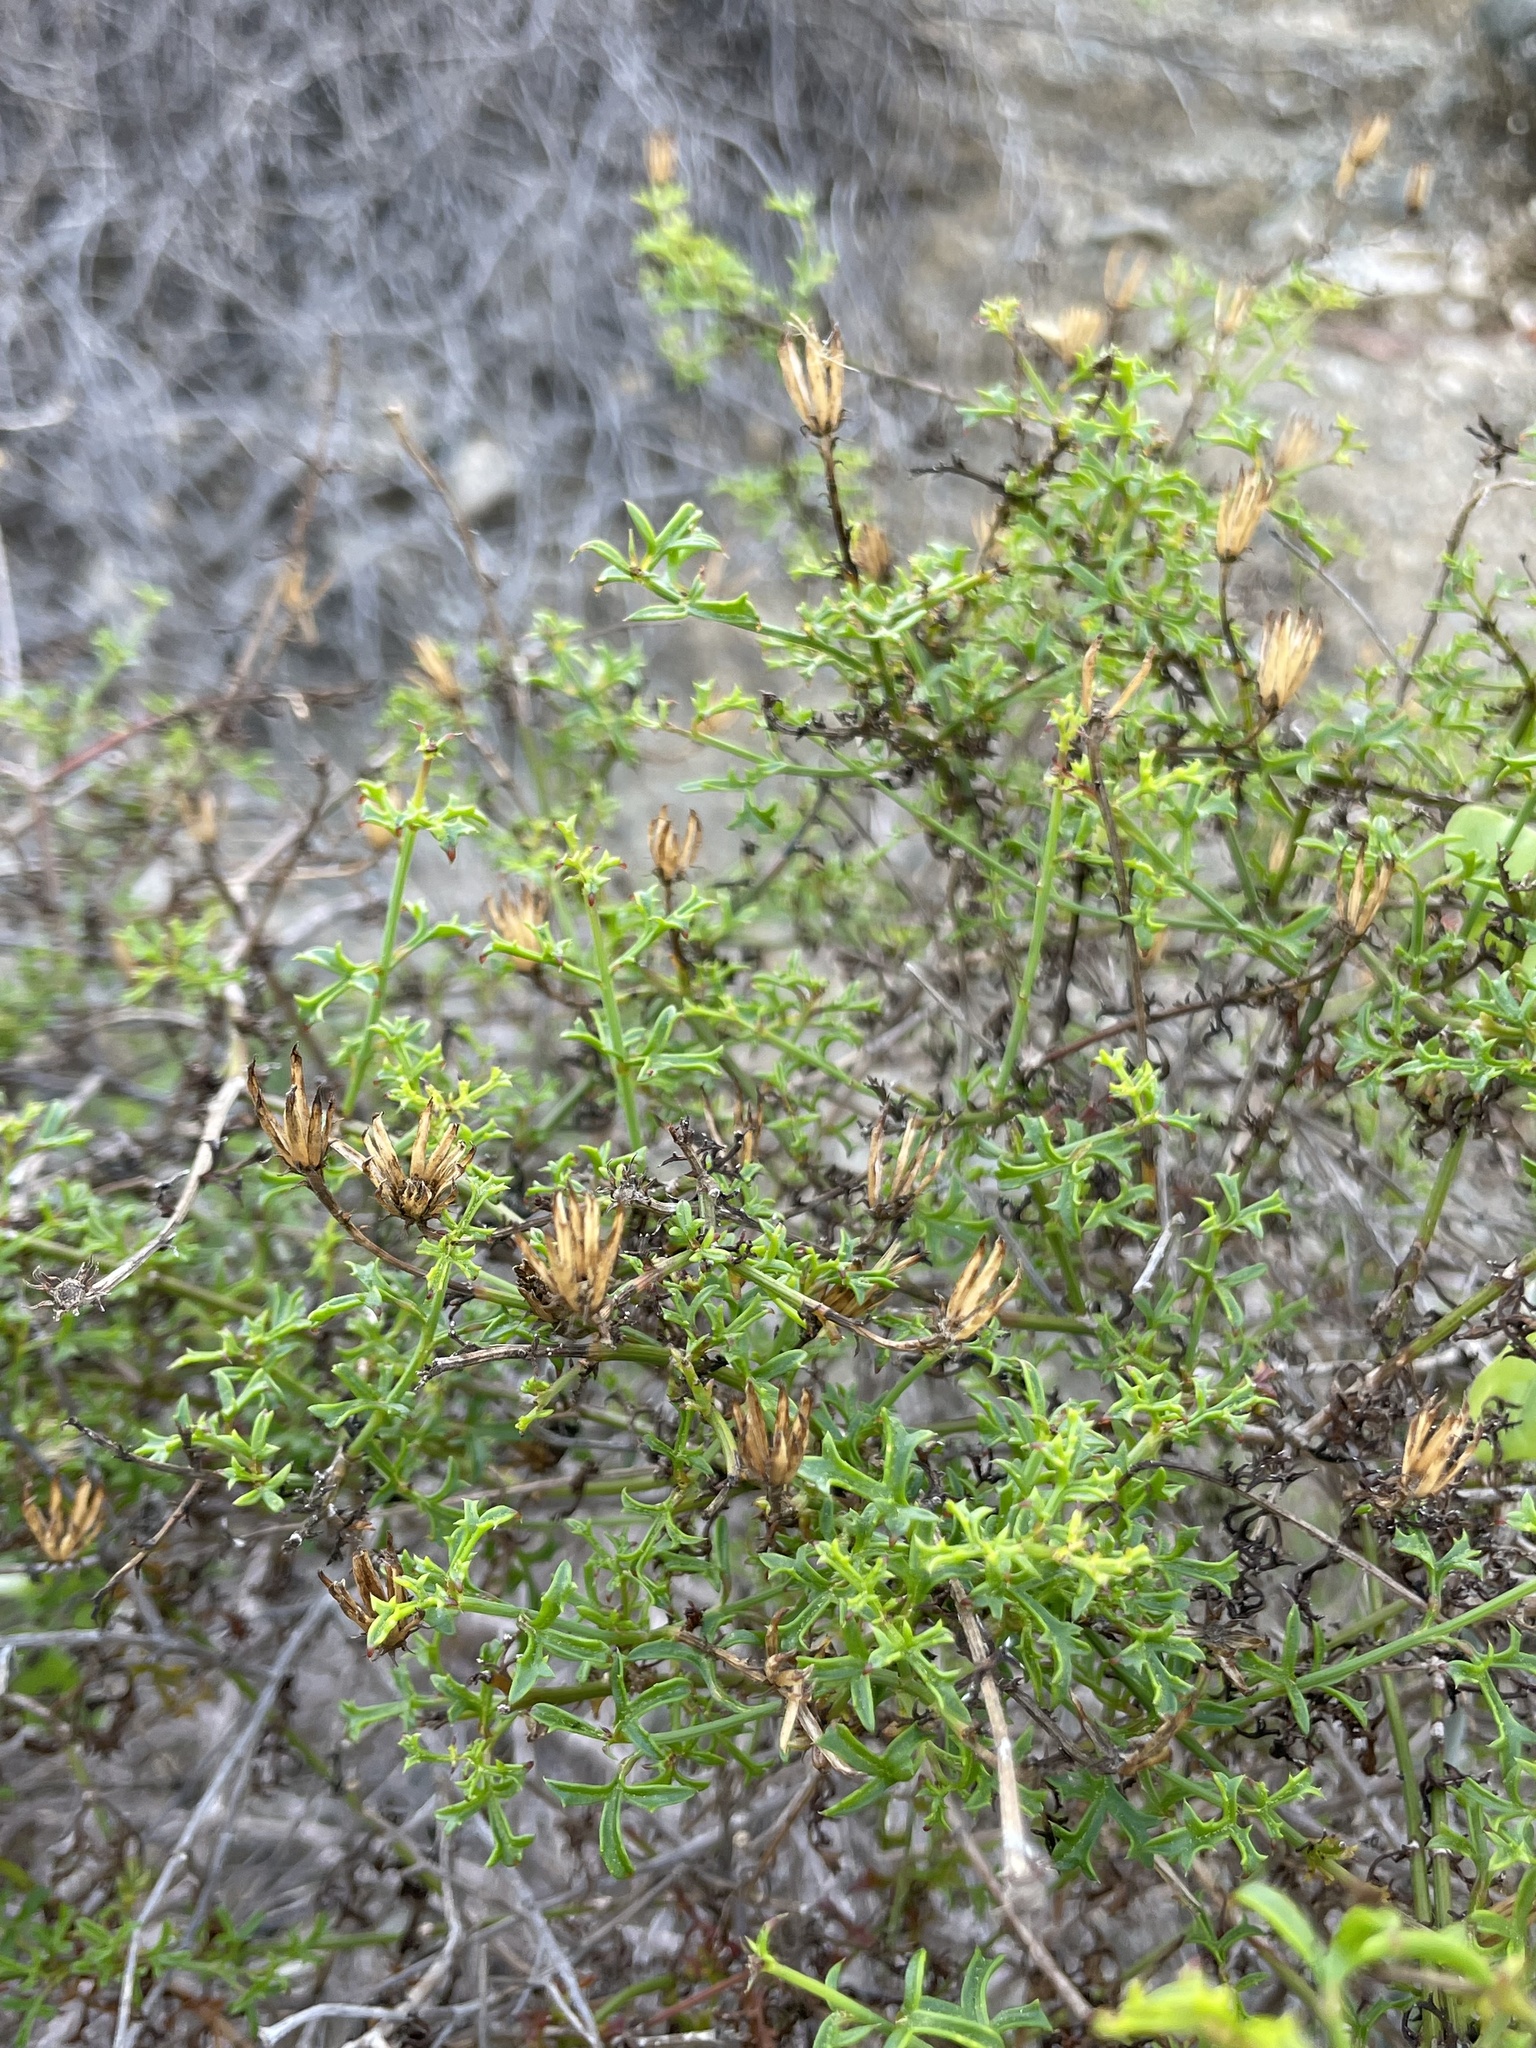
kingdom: Plantae
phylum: Tracheophyta
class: Magnoliopsida
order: Asterales
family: Asteraceae
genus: Adenophyllum
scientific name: Adenophyllum porophylloides
